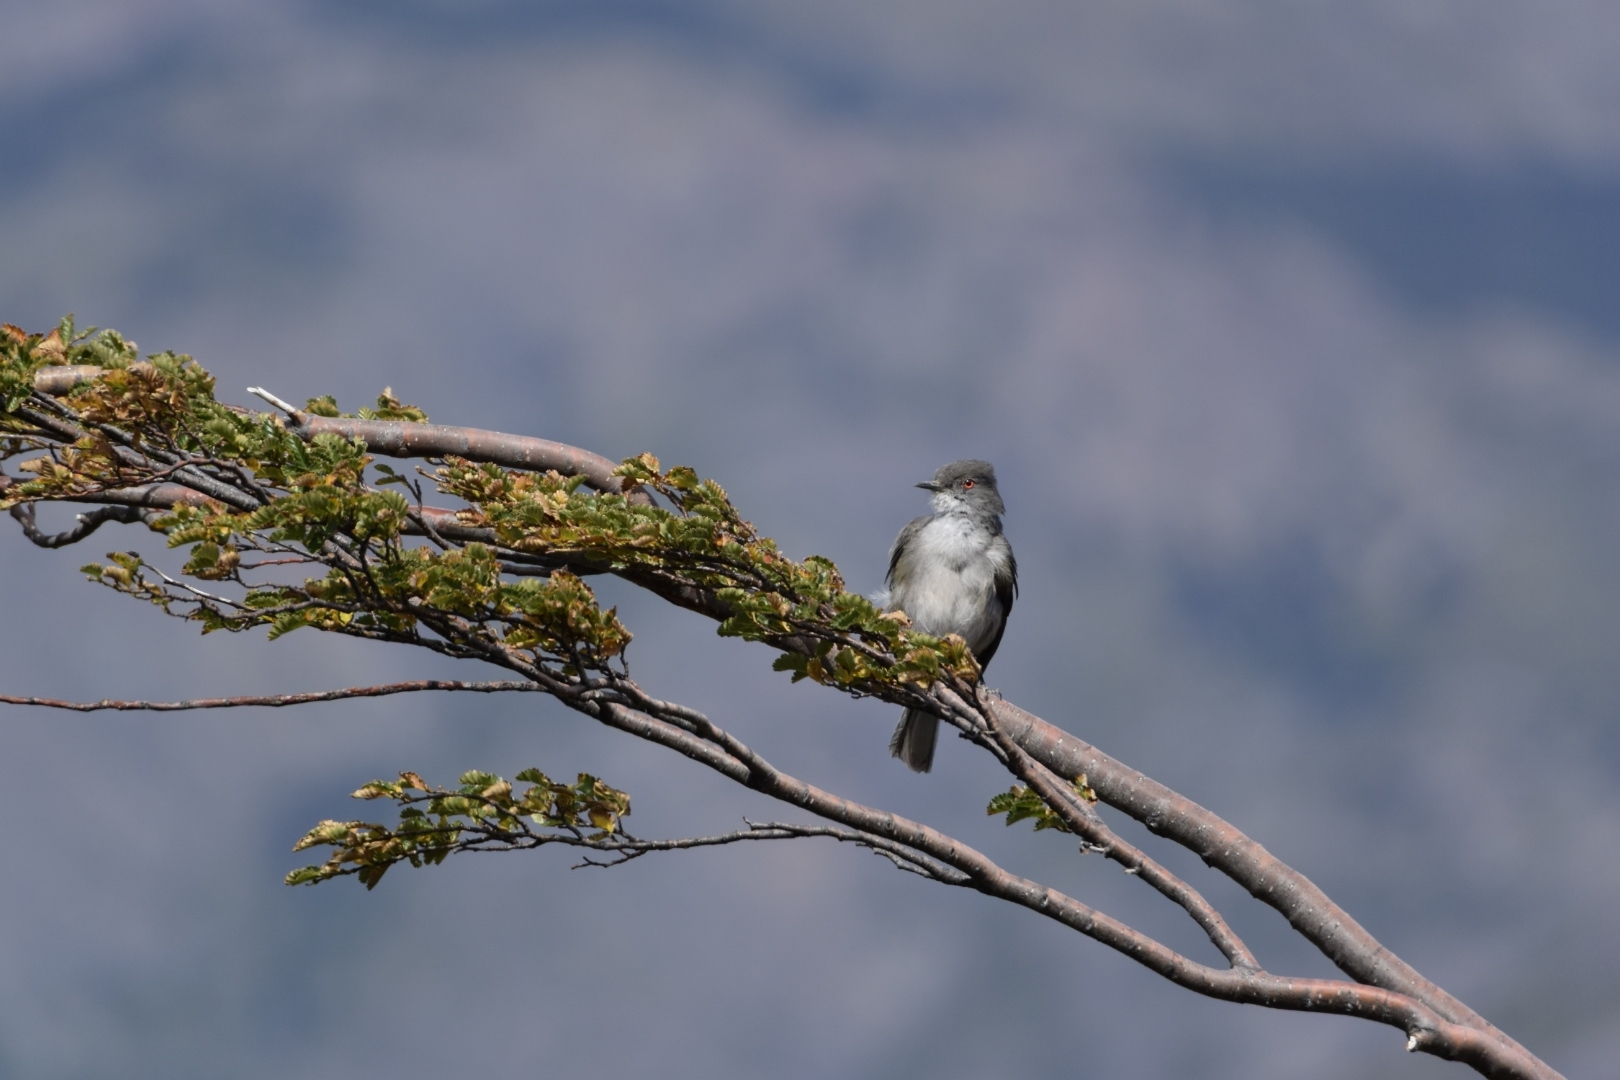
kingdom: Animalia
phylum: Chordata
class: Aves
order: Passeriformes
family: Tyrannidae
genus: Xolmis
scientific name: Xolmis pyrope
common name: Fire-eyed diucon
